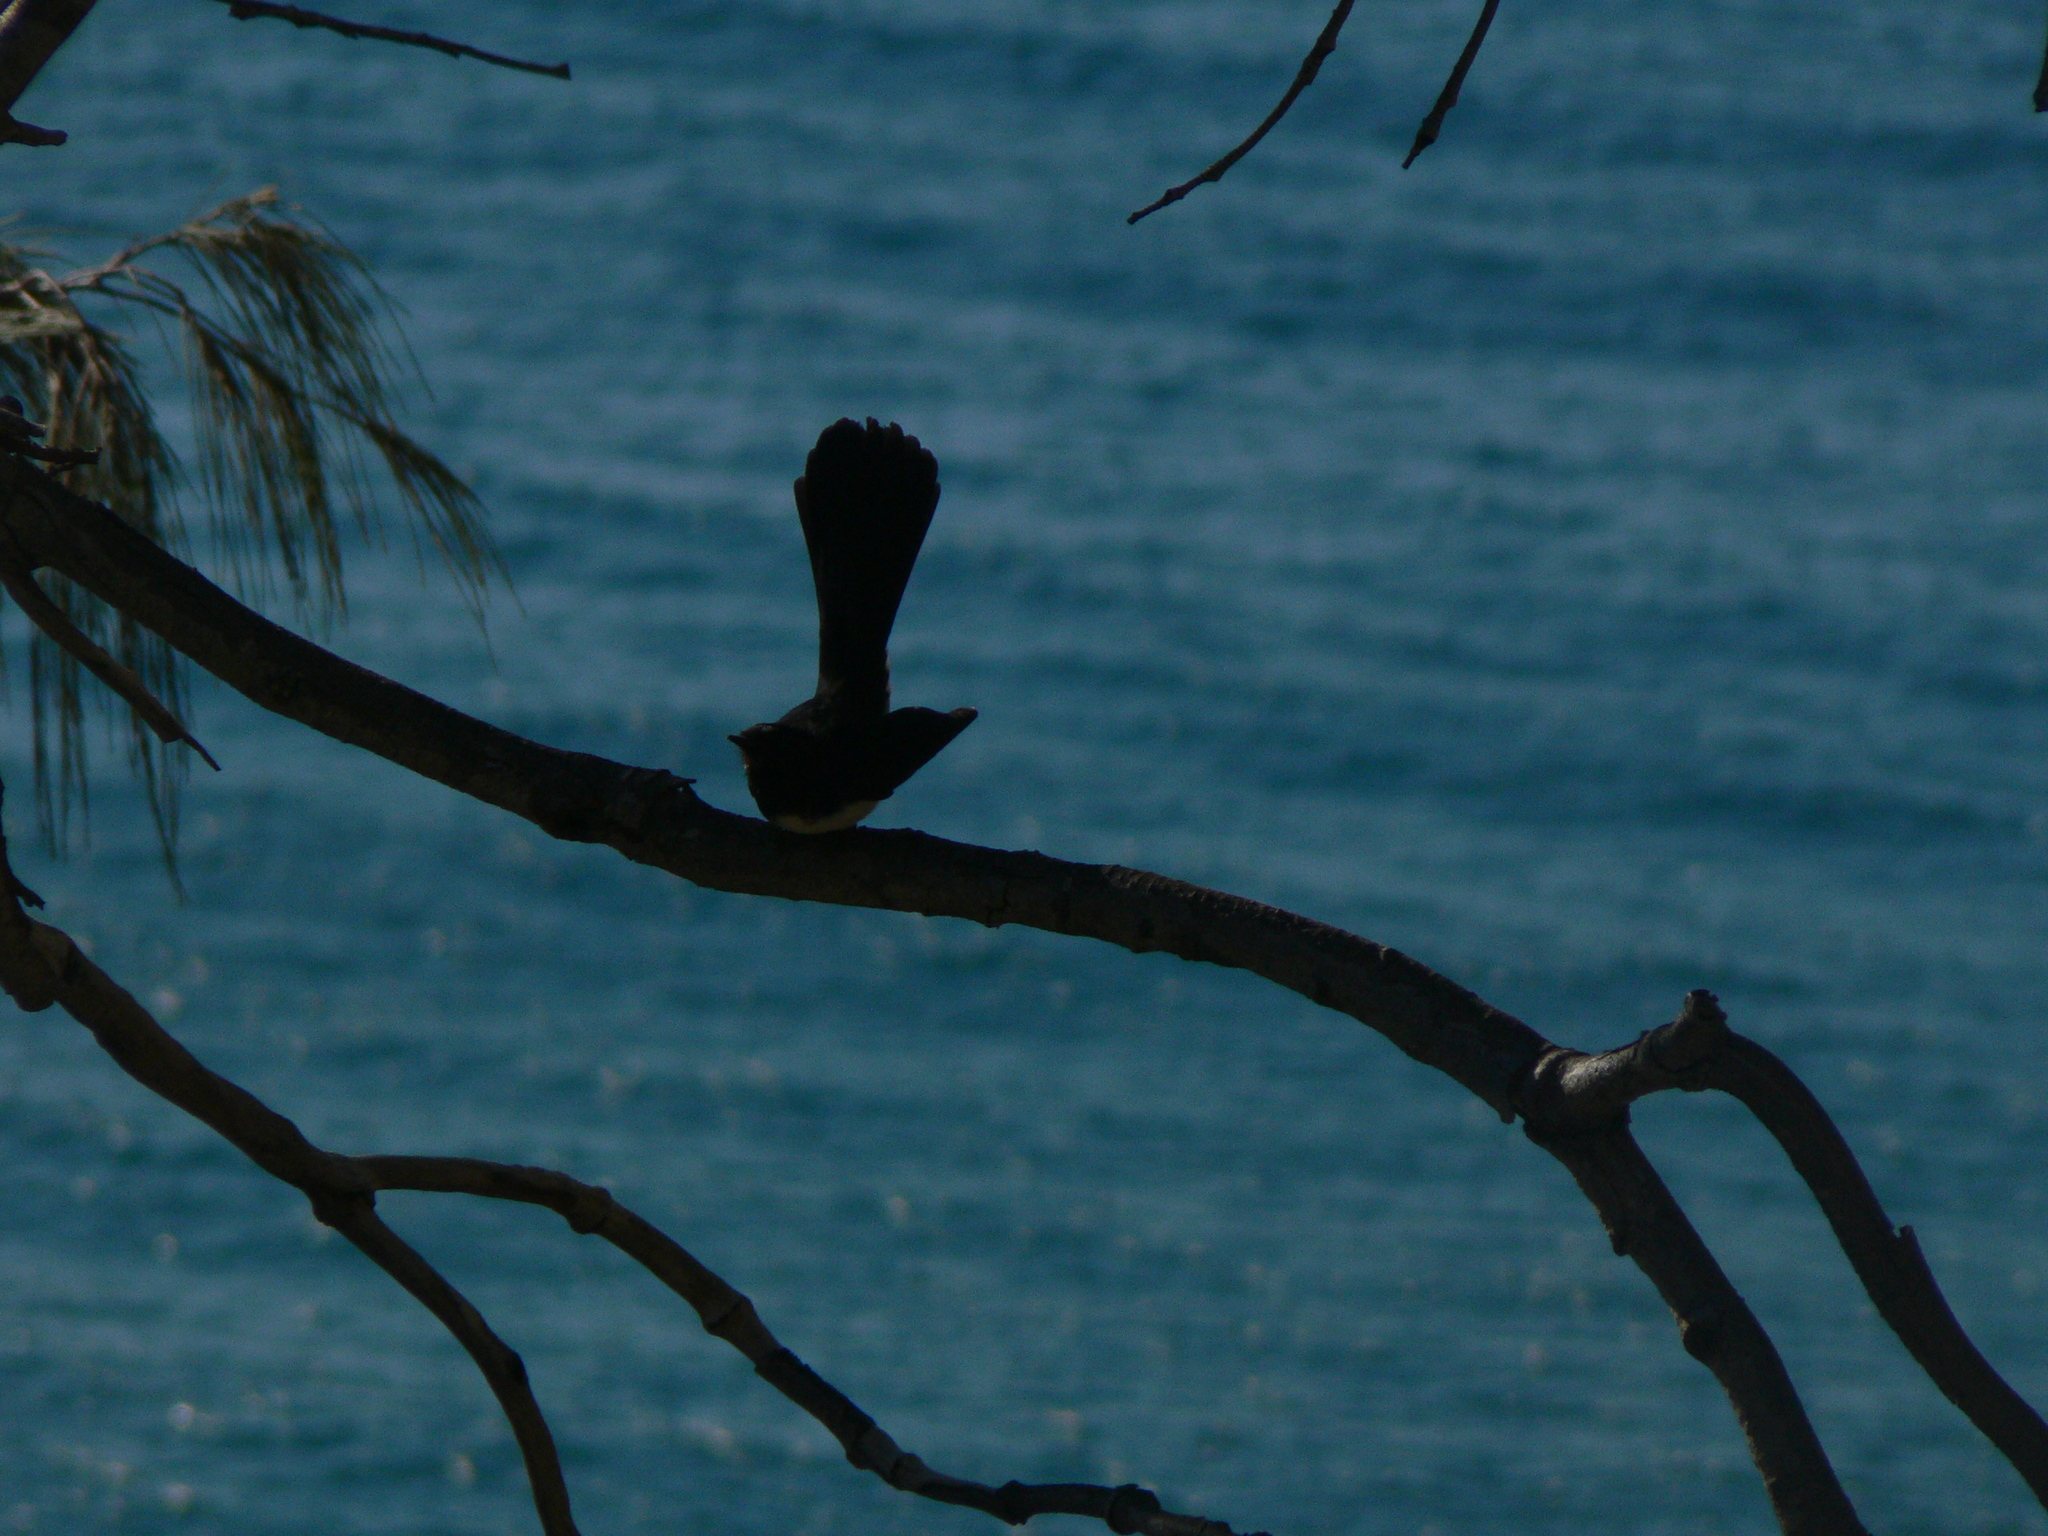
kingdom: Animalia
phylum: Chordata
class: Aves
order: Passeriformes
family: Rhipiduridae
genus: Rhipidura
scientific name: Rhipidura leucophrys
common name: Willie wagtail
